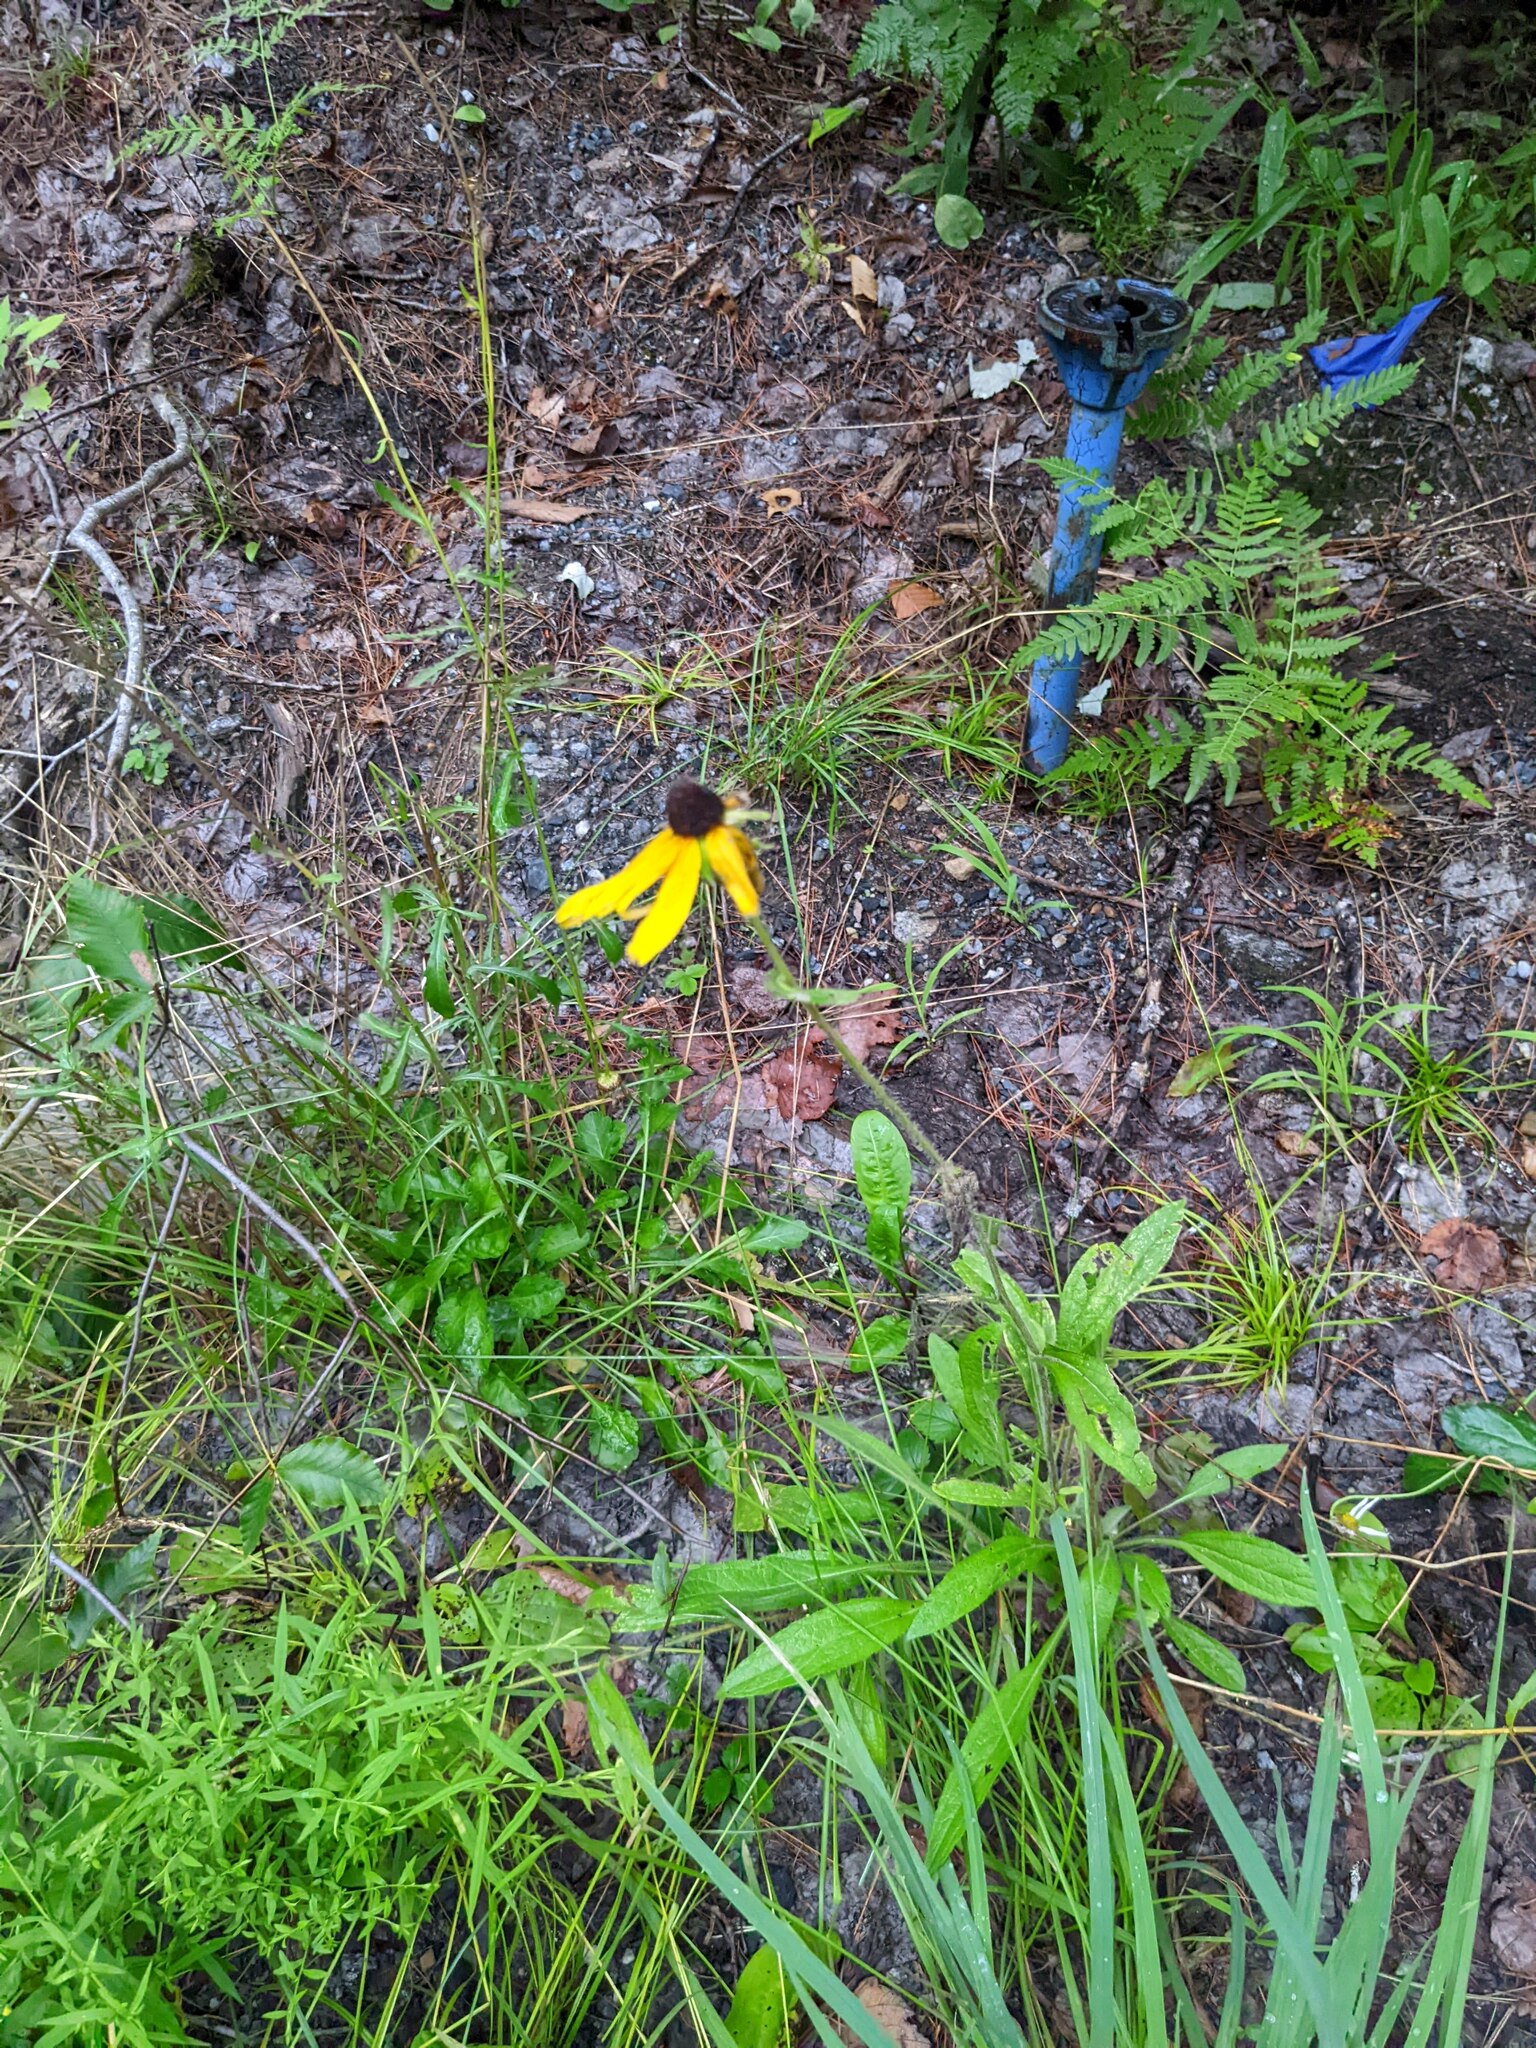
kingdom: Plantae
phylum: Tracheophyta
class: Magnoliopsida
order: Asterales
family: Asteraceae
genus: Rudbeckia
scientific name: Rudbeckia hirta
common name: Black-eyed-susan
